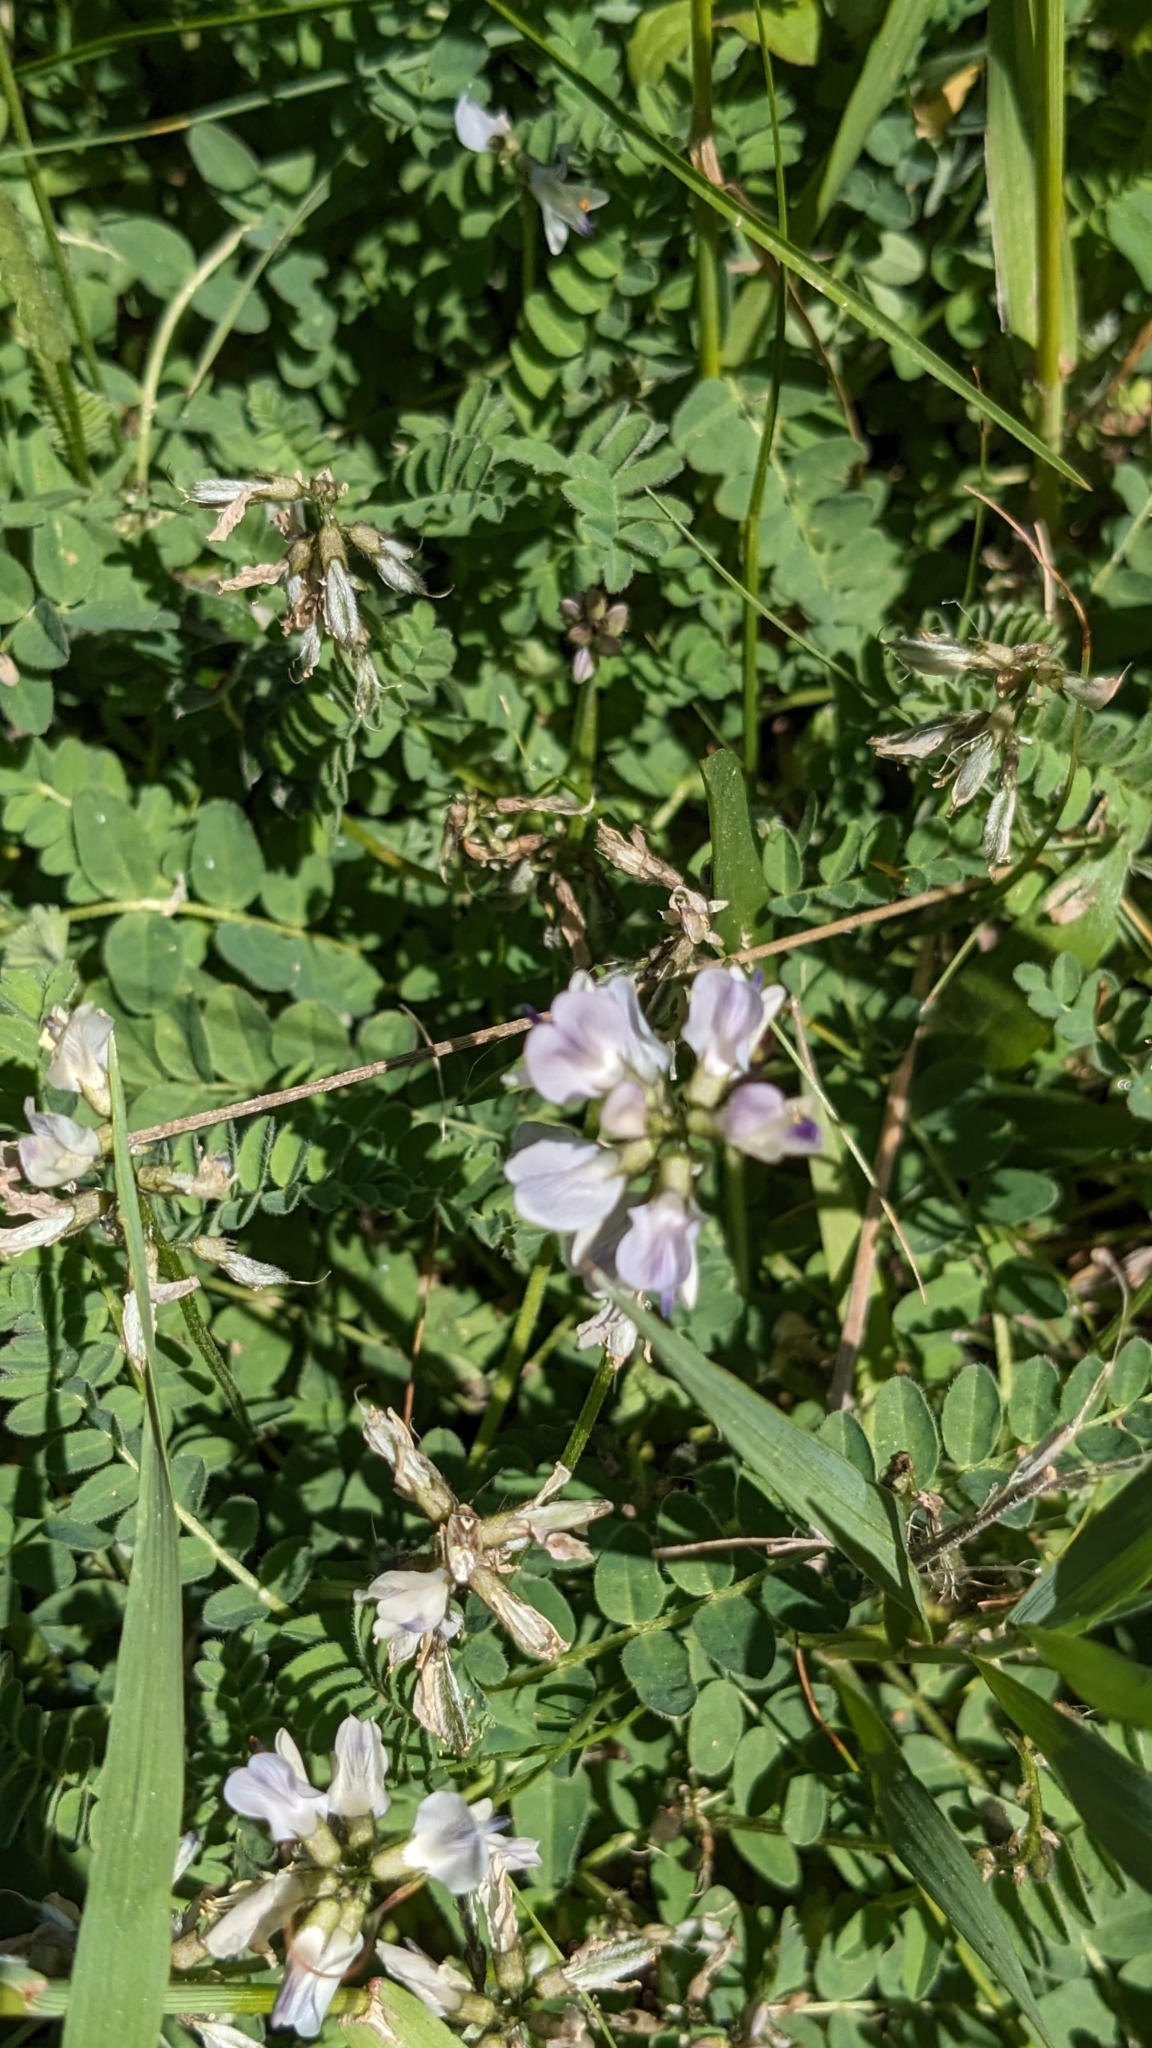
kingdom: Plantae
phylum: Tracheophyta
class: Magnoliopsida
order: Fabales
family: Fabaceae
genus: Astragalus
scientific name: Astragalus alpinus
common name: Alpine milk-vetch
